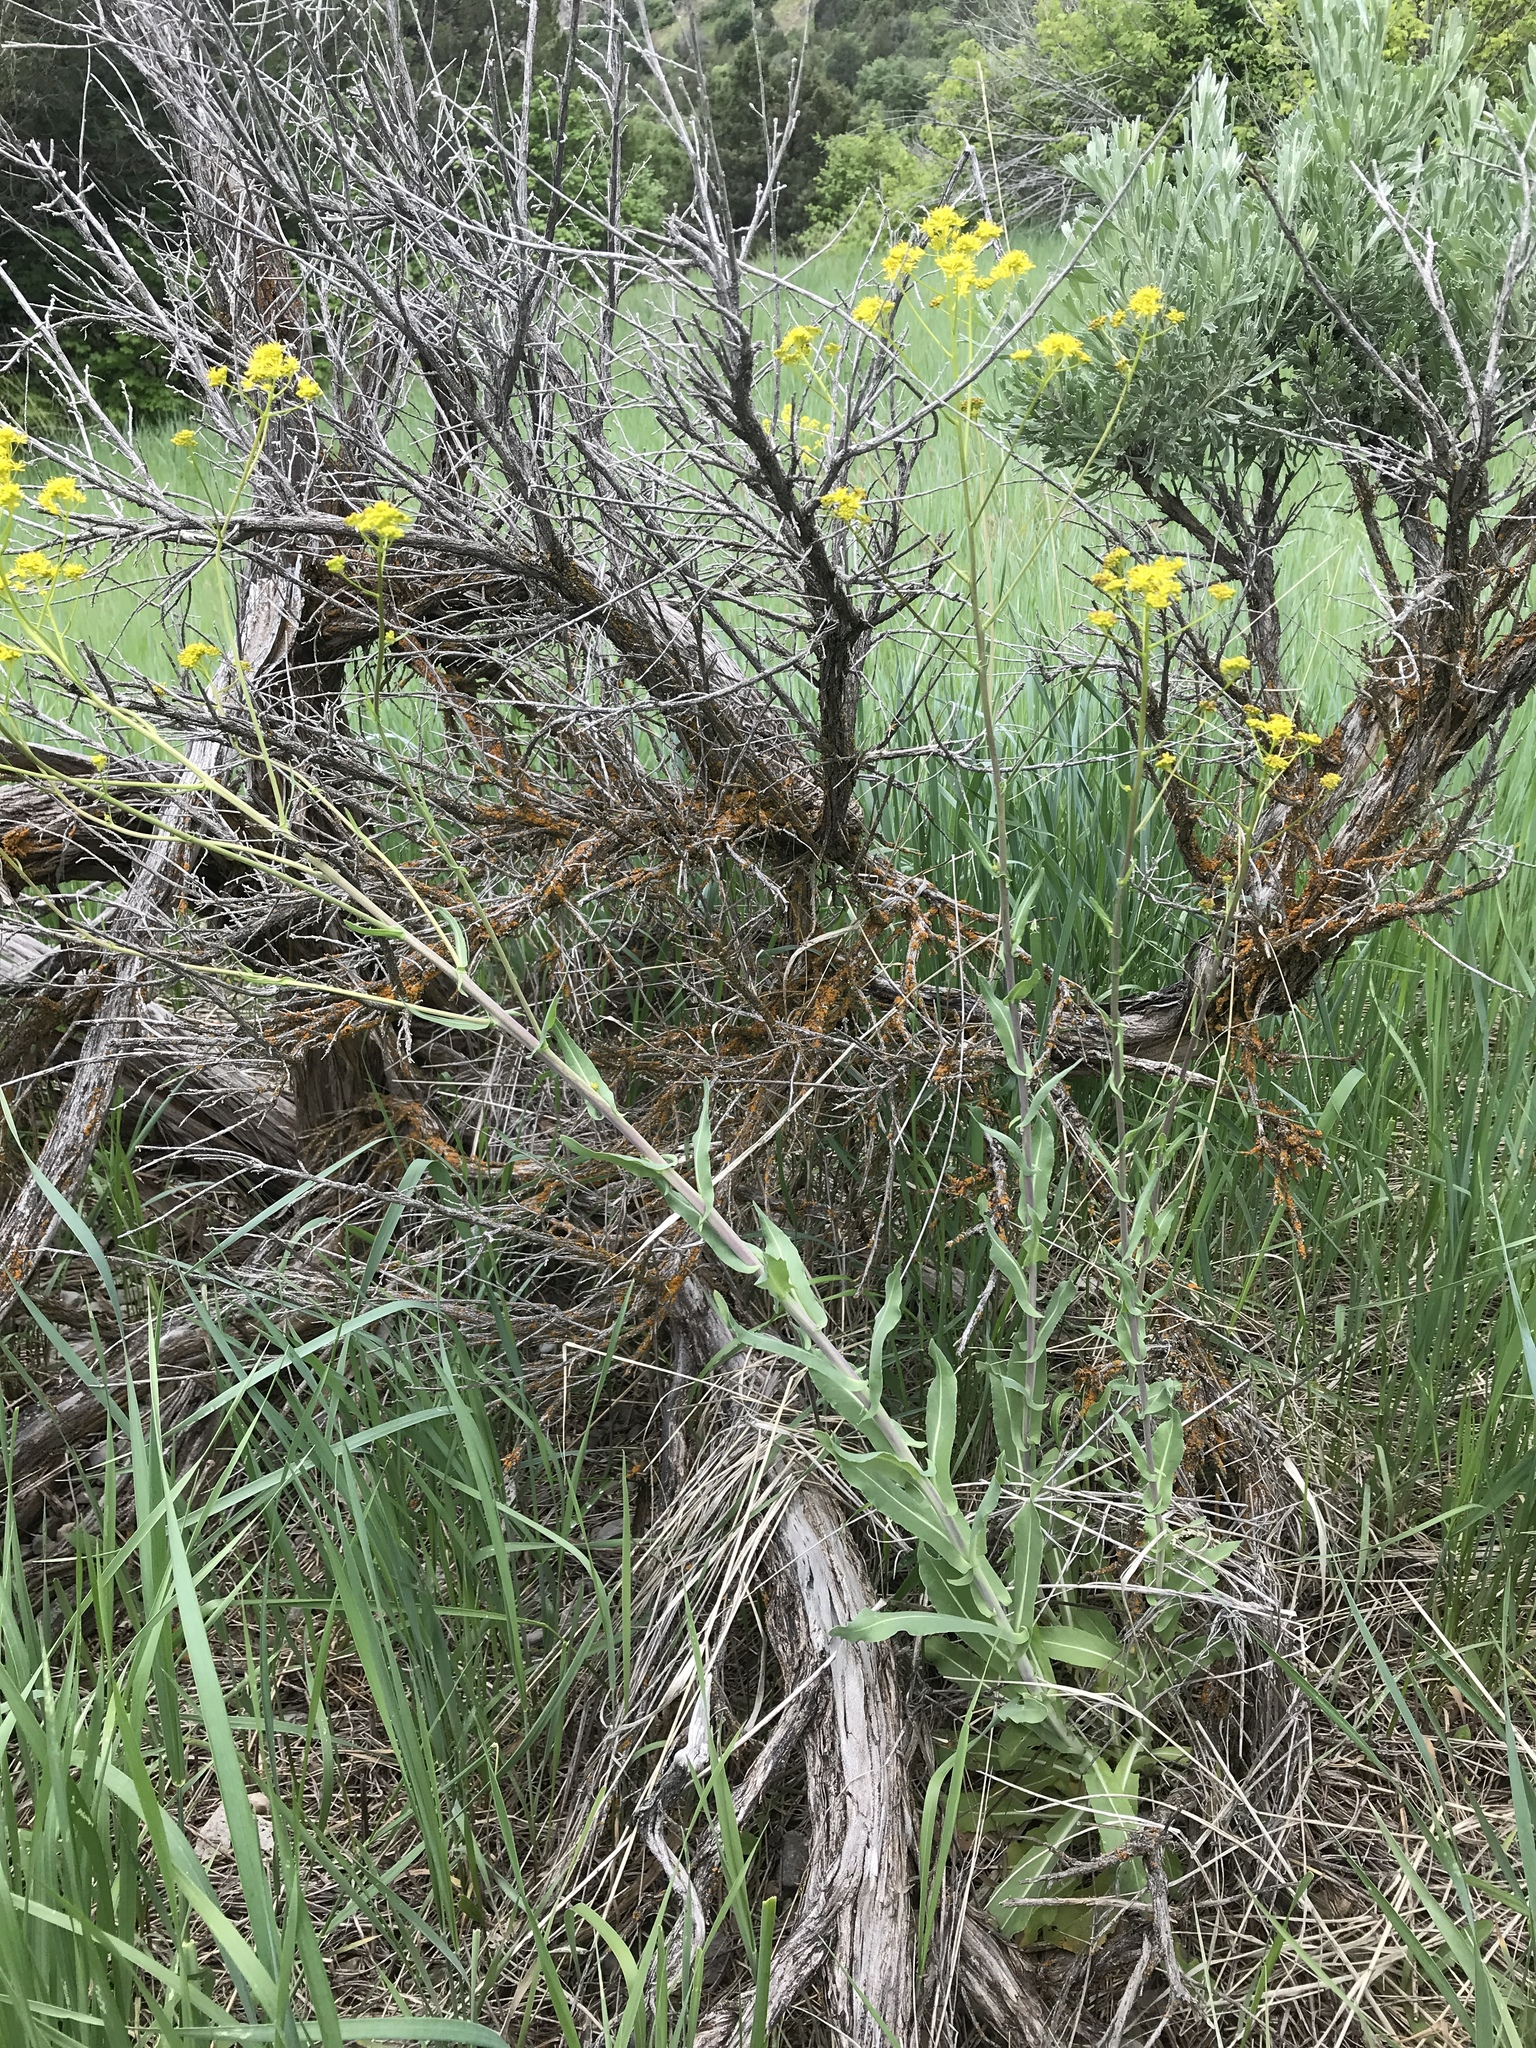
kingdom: Plantae
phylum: Tracheophyta
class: Magnoliopsida
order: Brassicales
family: Brassicaceae
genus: Isatis
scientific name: Isatis tinctoria
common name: Woad
